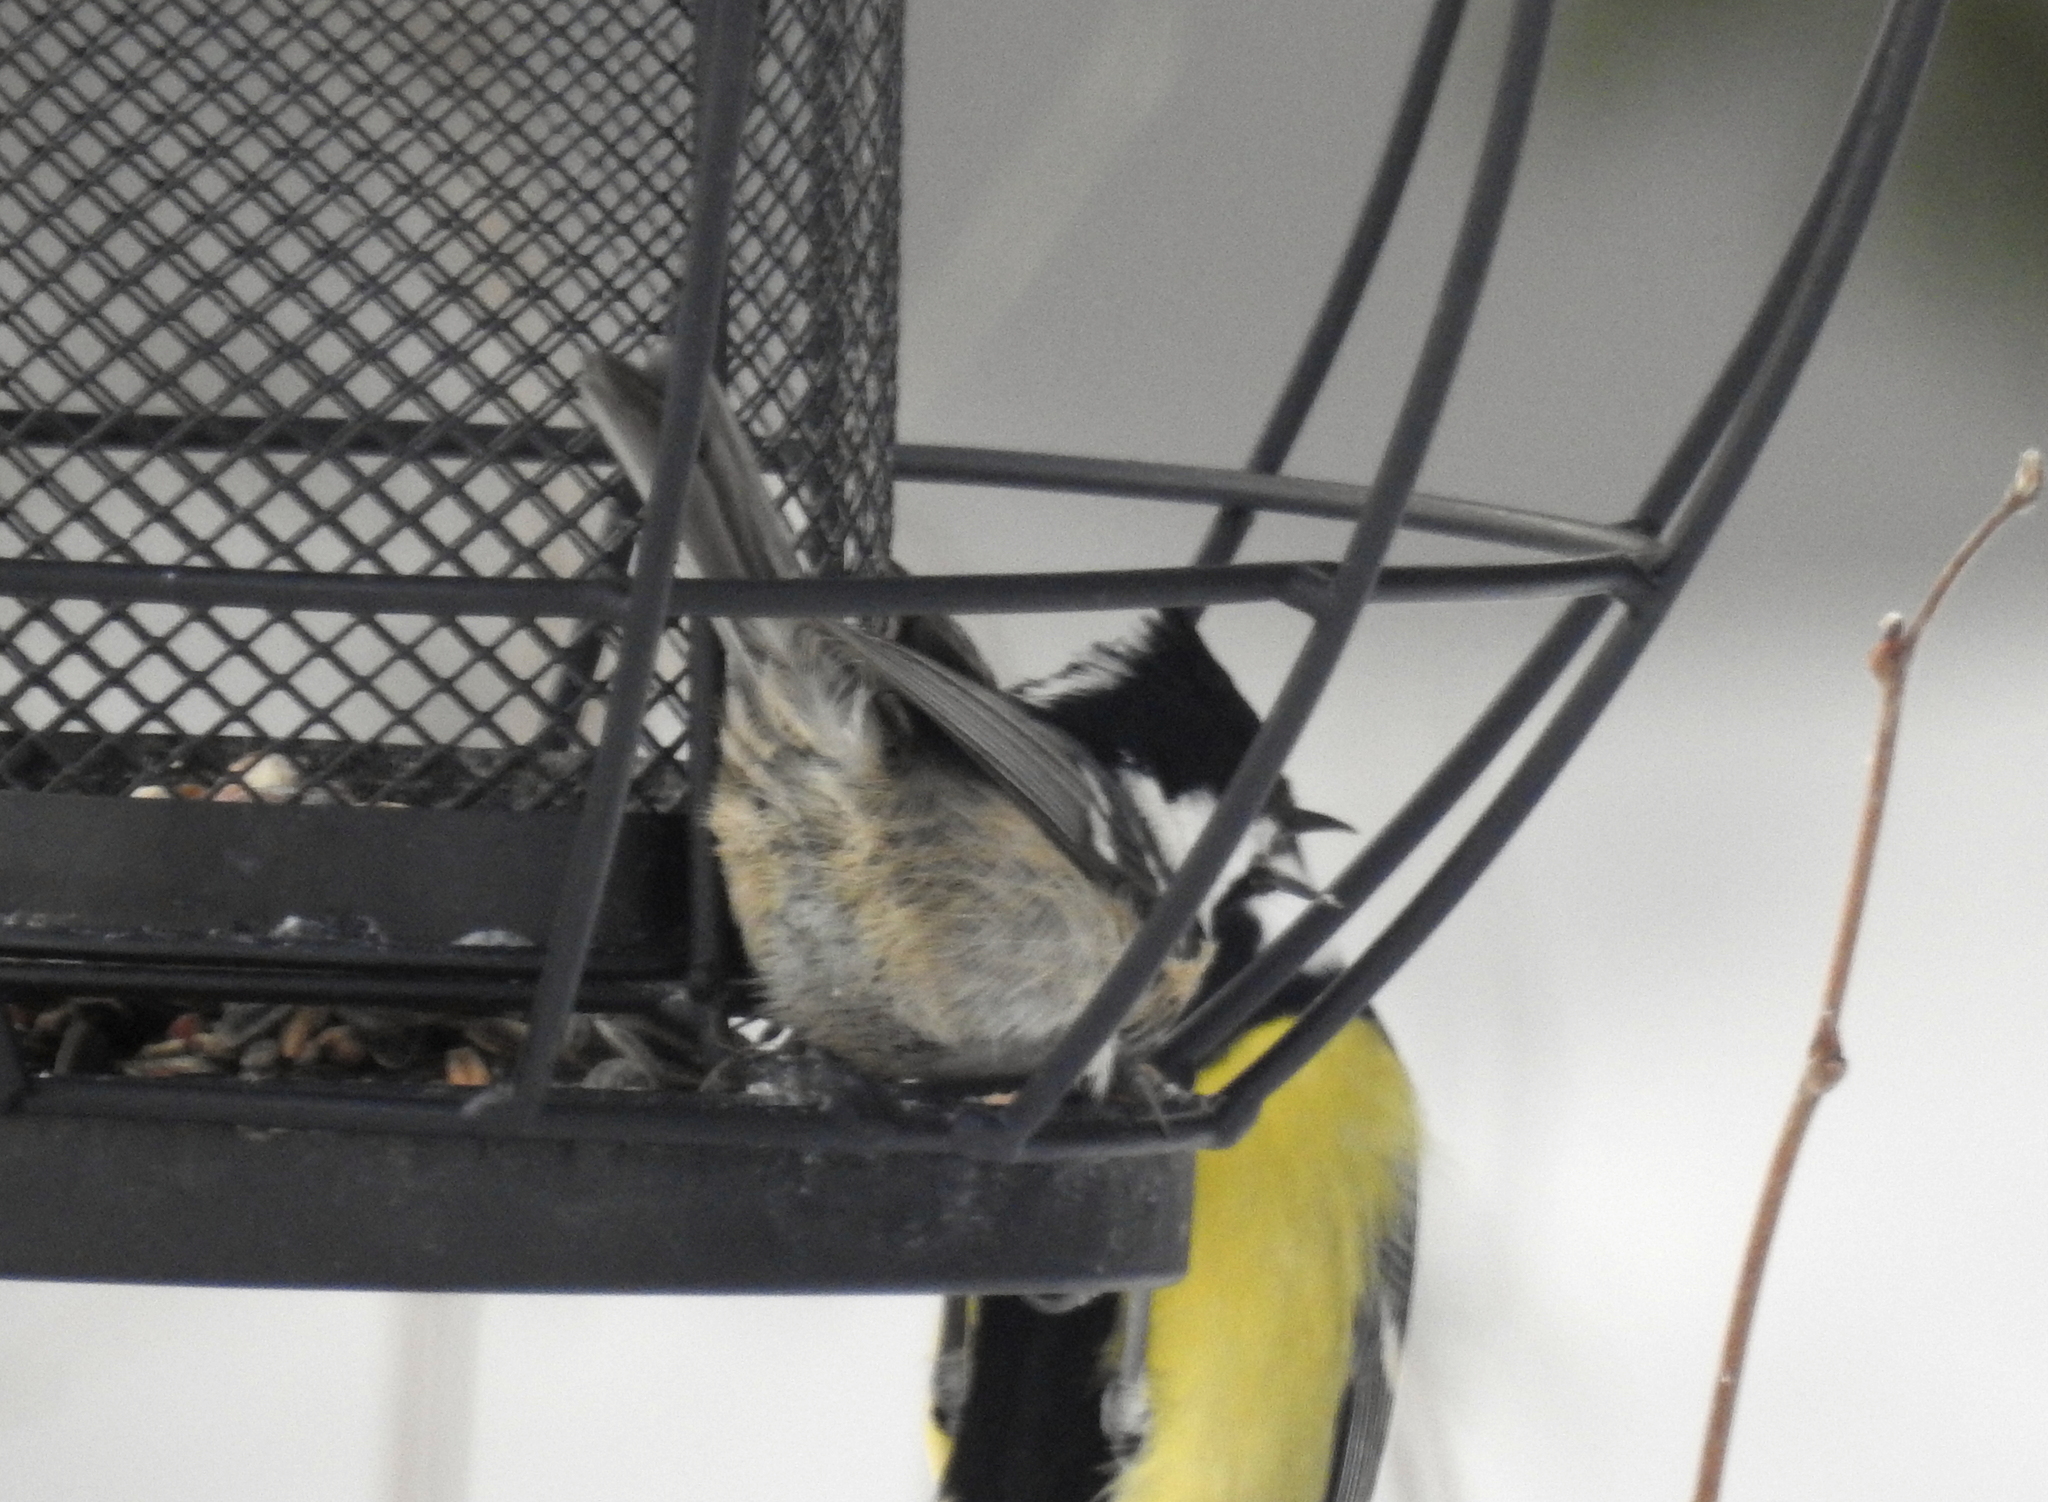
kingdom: Animalia
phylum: Chordata
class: Aves
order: Passeriformes
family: Paridae
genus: Periparus
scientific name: Periparus ater
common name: Coal tit
